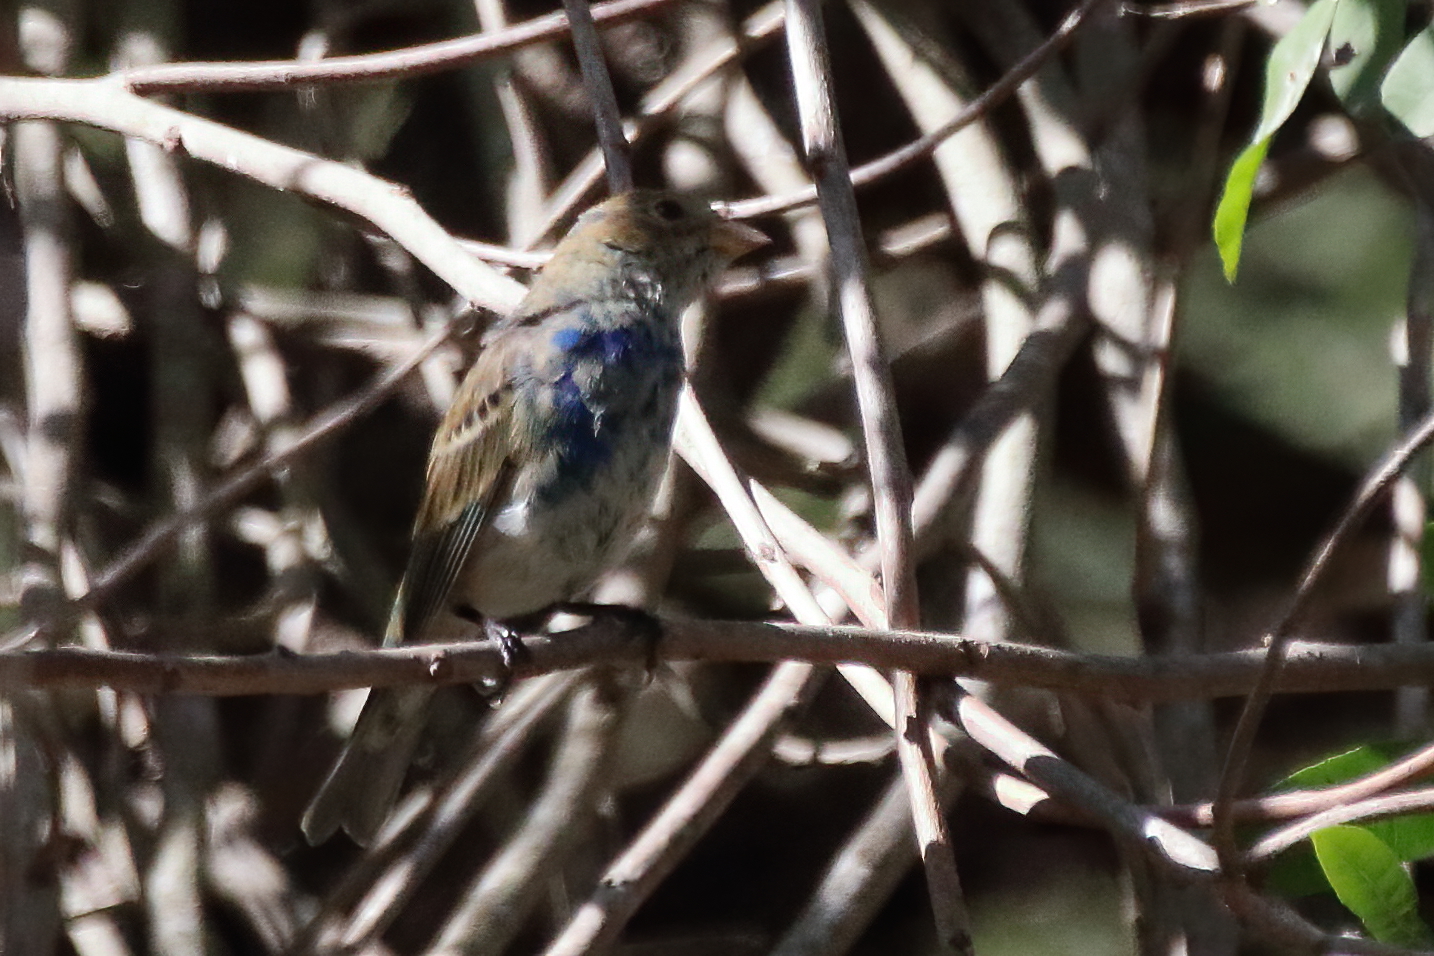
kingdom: Animalia
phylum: Chordata
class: Aves
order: Passeriformes
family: Cardinalidae
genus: Passerina
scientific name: Passerina cyanea
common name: Indigo bunting
